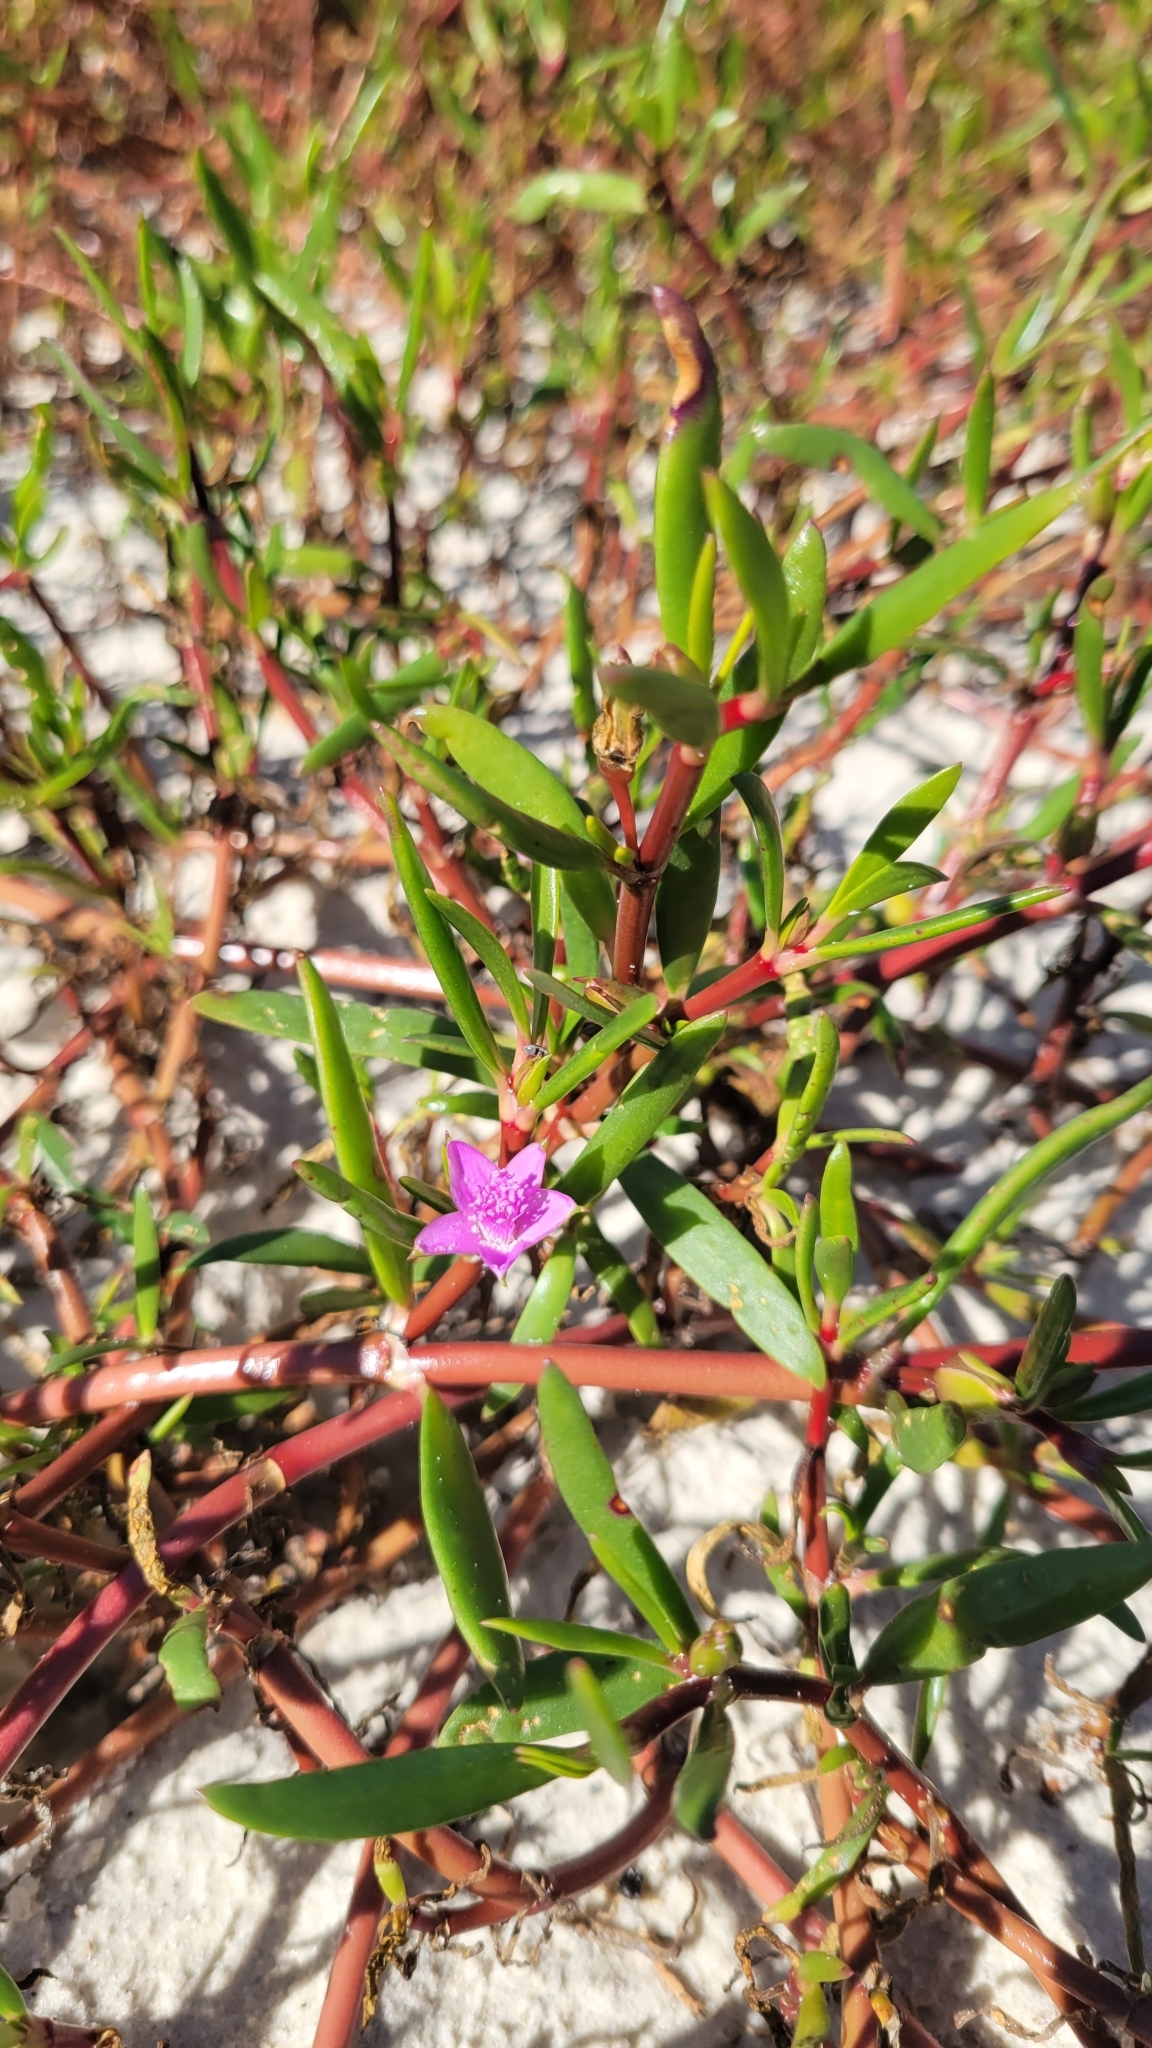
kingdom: Plantae
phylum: Tracheophyta
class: Magnoliopsida
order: Caryophyllales
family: Aizoaceae
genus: Sesuvium
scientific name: Sesuvium portulacastrum
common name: Sea-purslane
